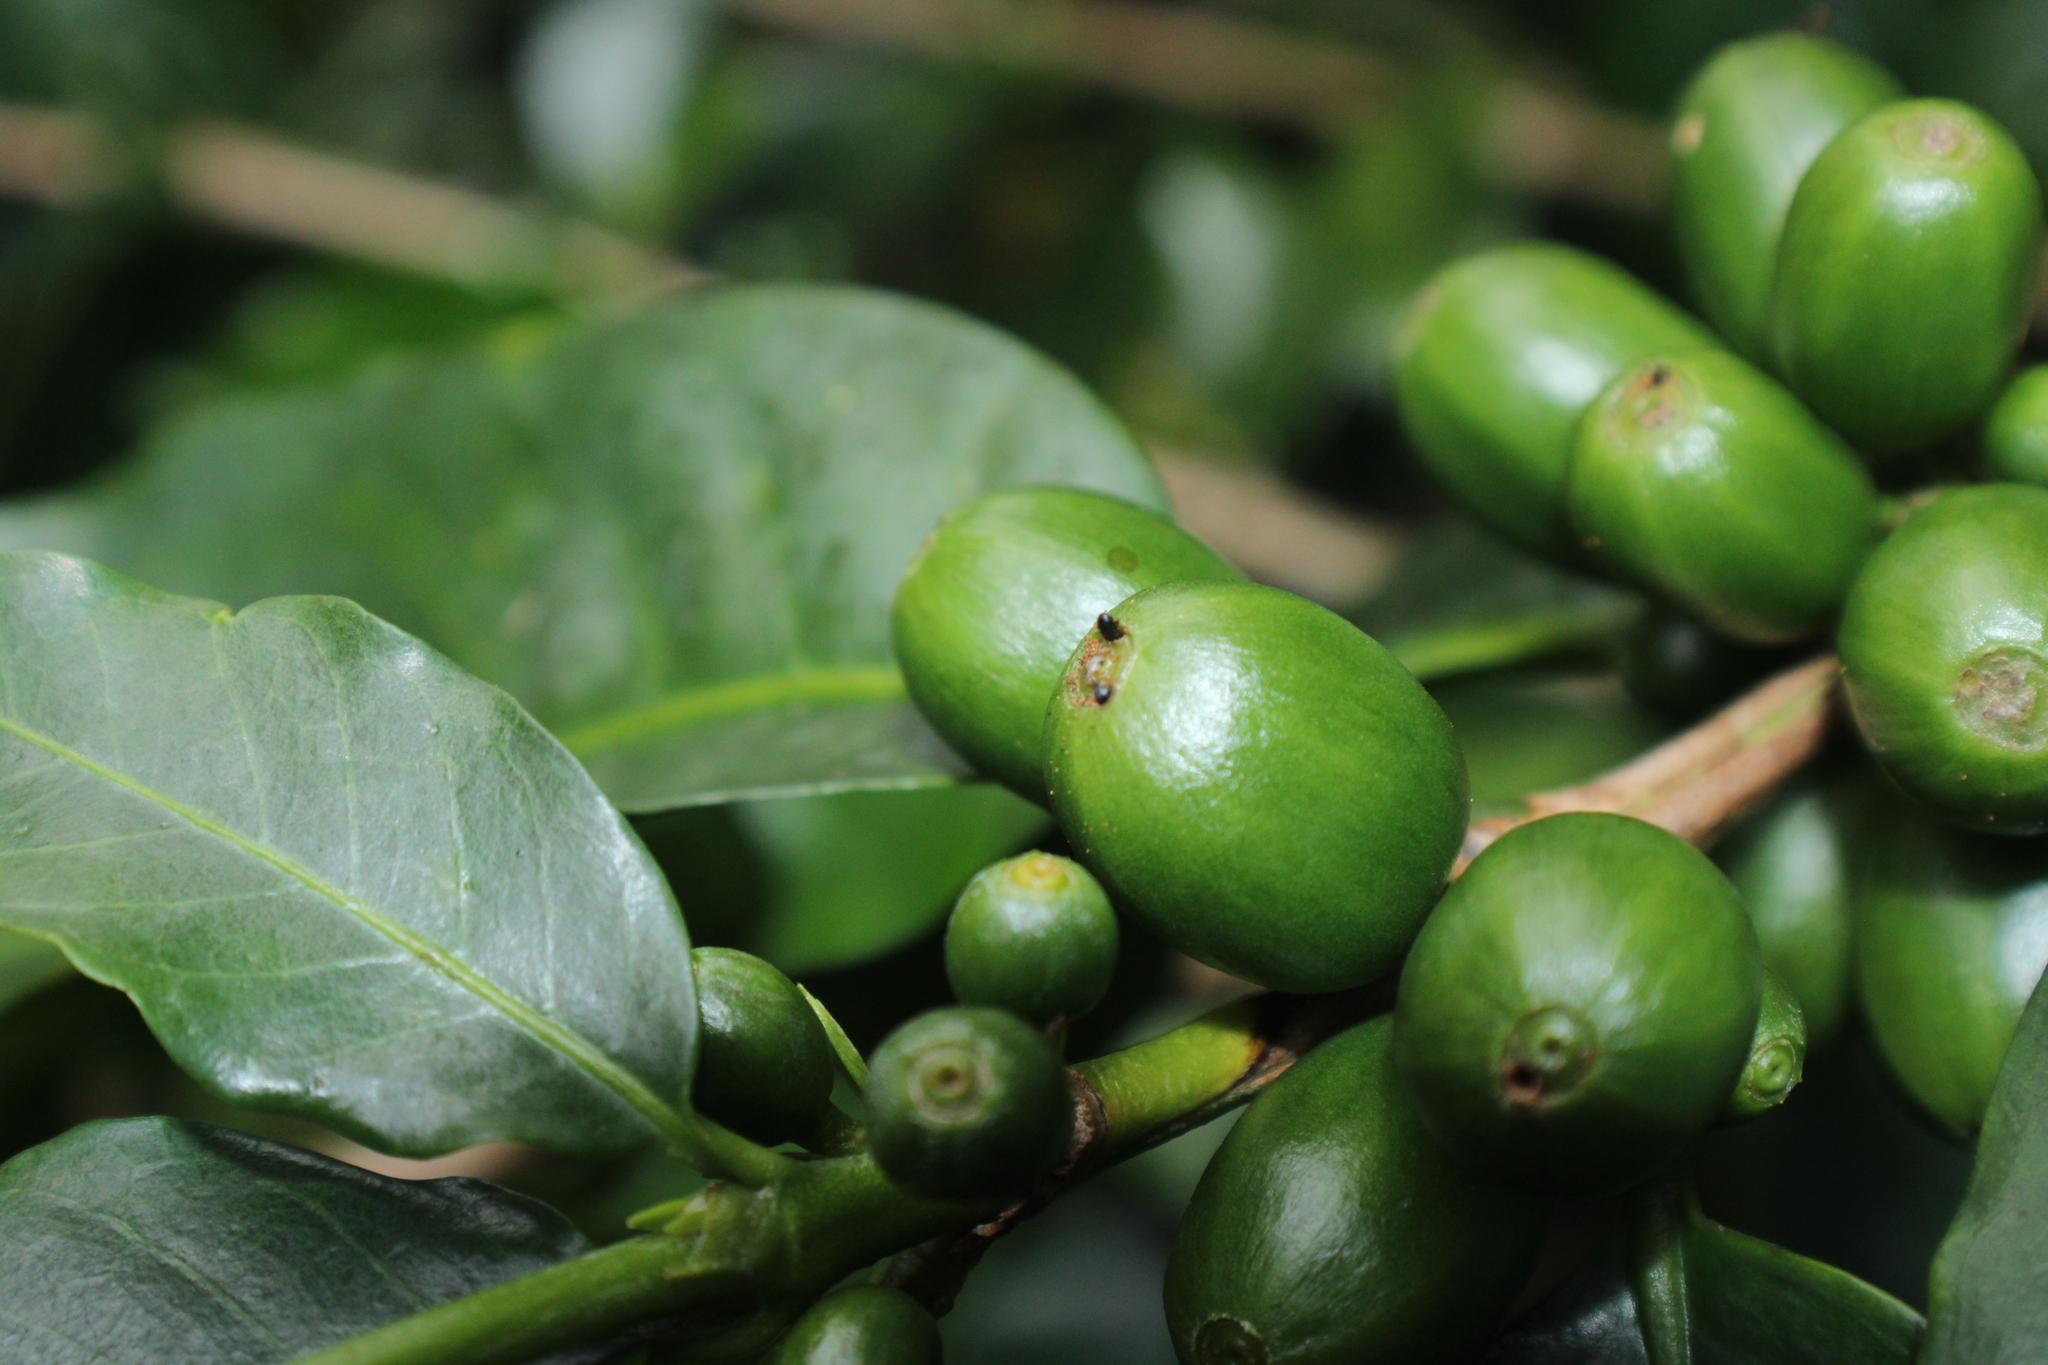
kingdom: Animalia
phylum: Arthropoda
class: Insecta
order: Coleoptera
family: Curculionidae
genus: Hypothenemus
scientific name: Hypothenemus hampei
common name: Coffee berry borer
